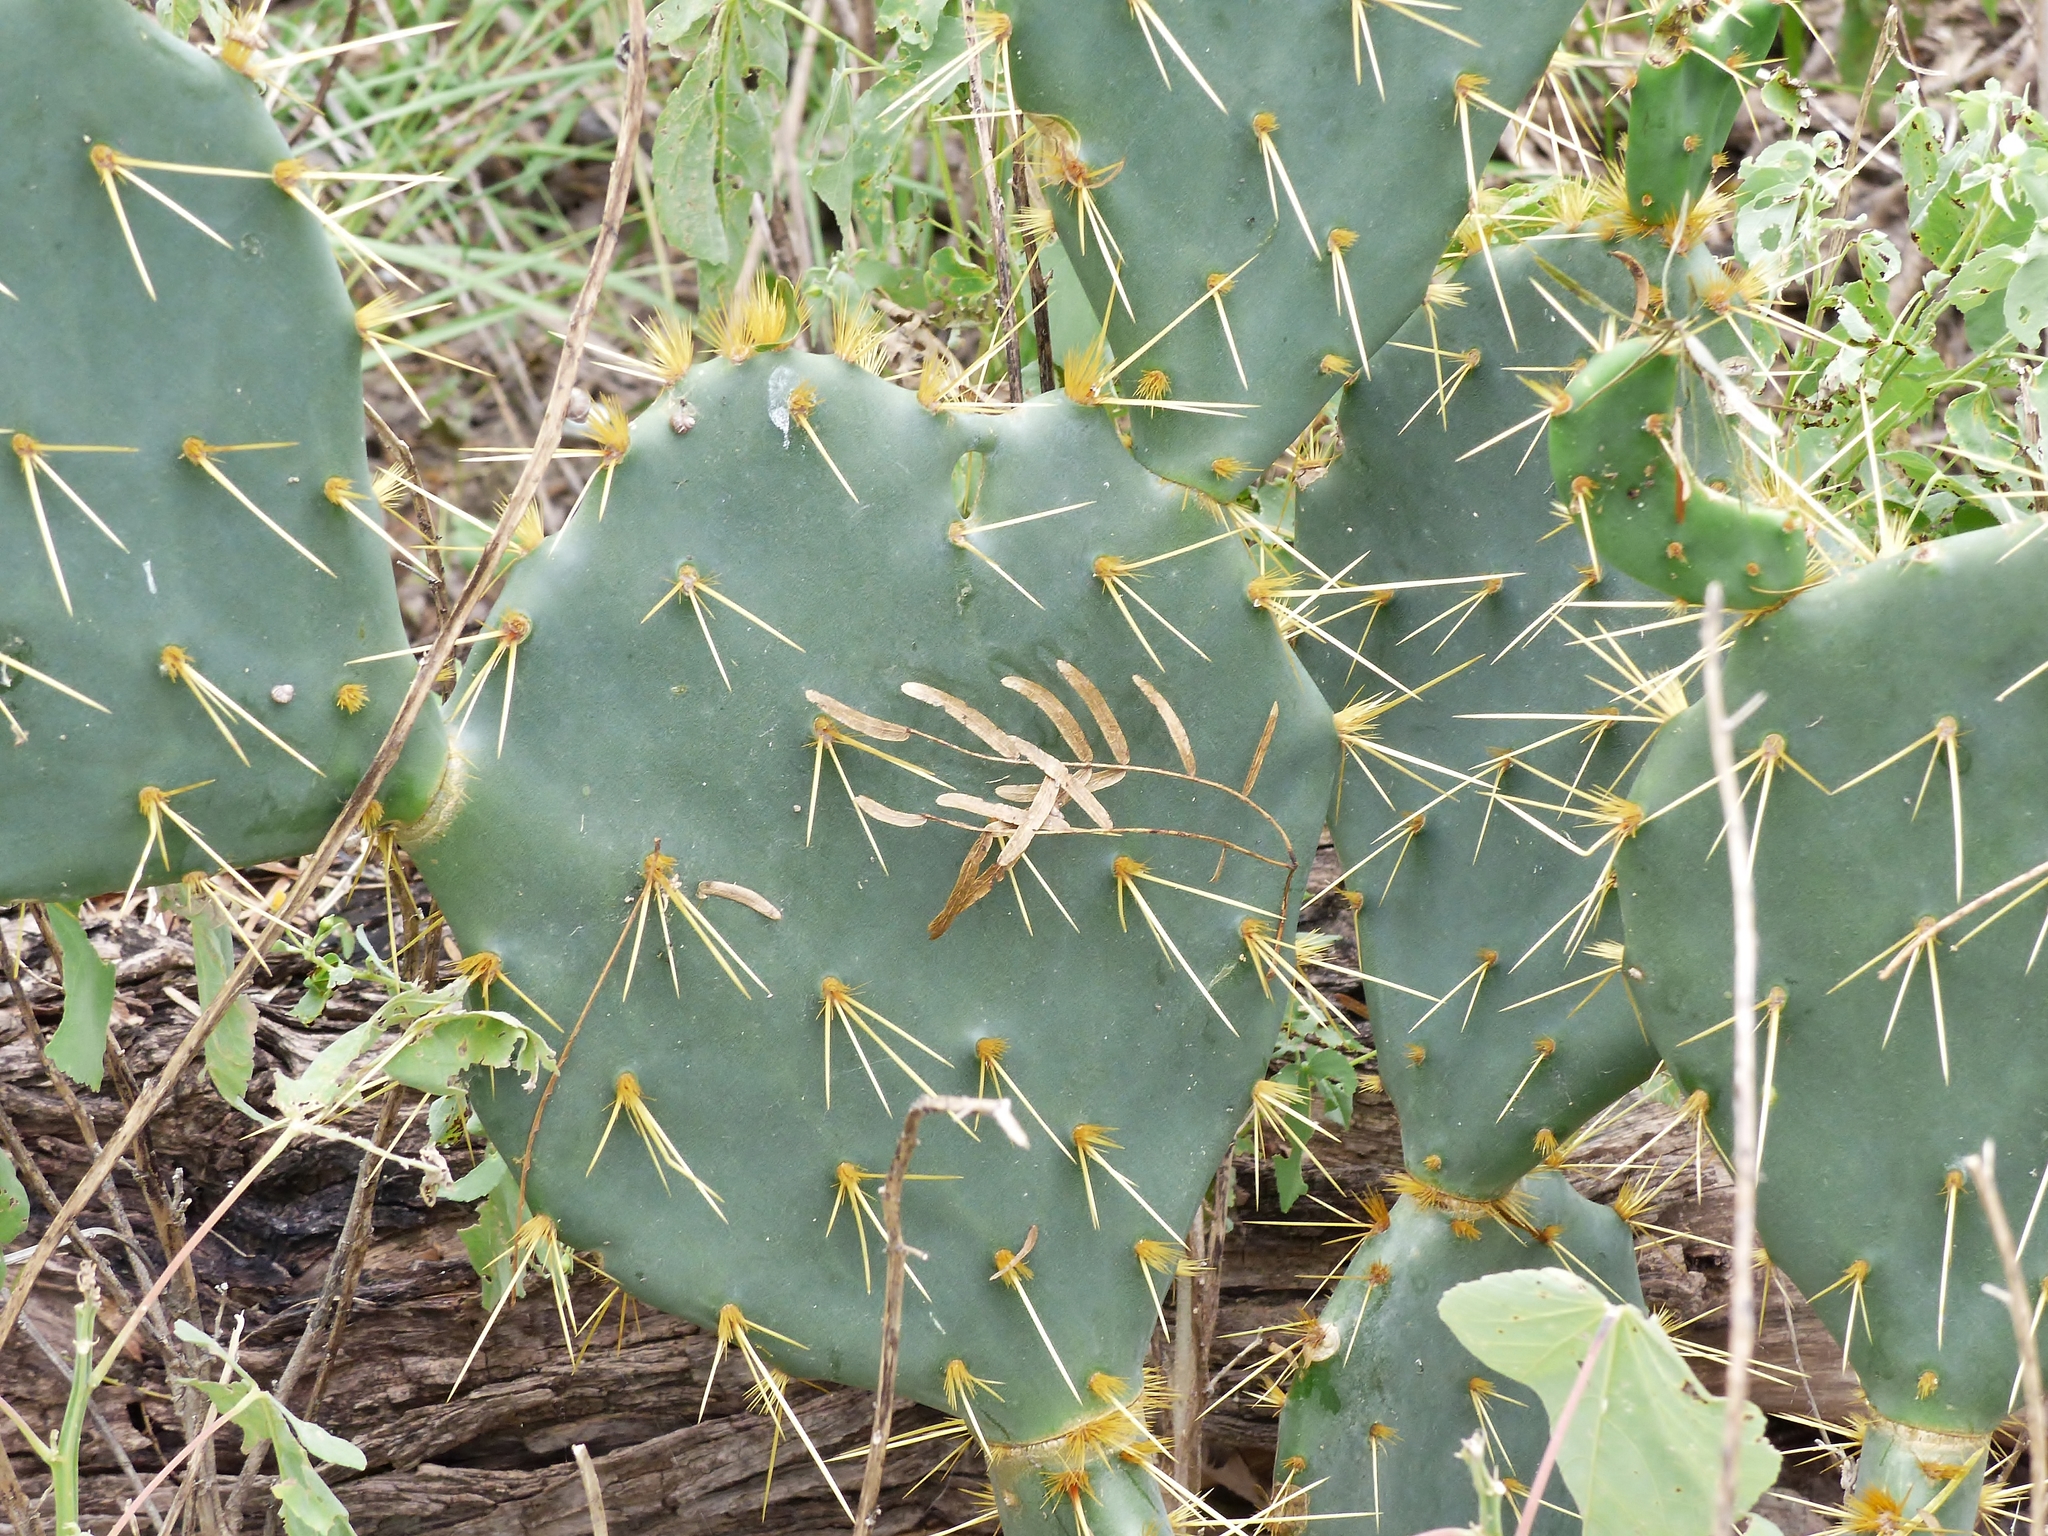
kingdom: Plantae
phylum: Tracheophyta
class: Magnoliopsida
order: Caryophyllales
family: Cactaceae
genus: Opuntia
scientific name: Opuntia engelmannii
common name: Cactus-apple
